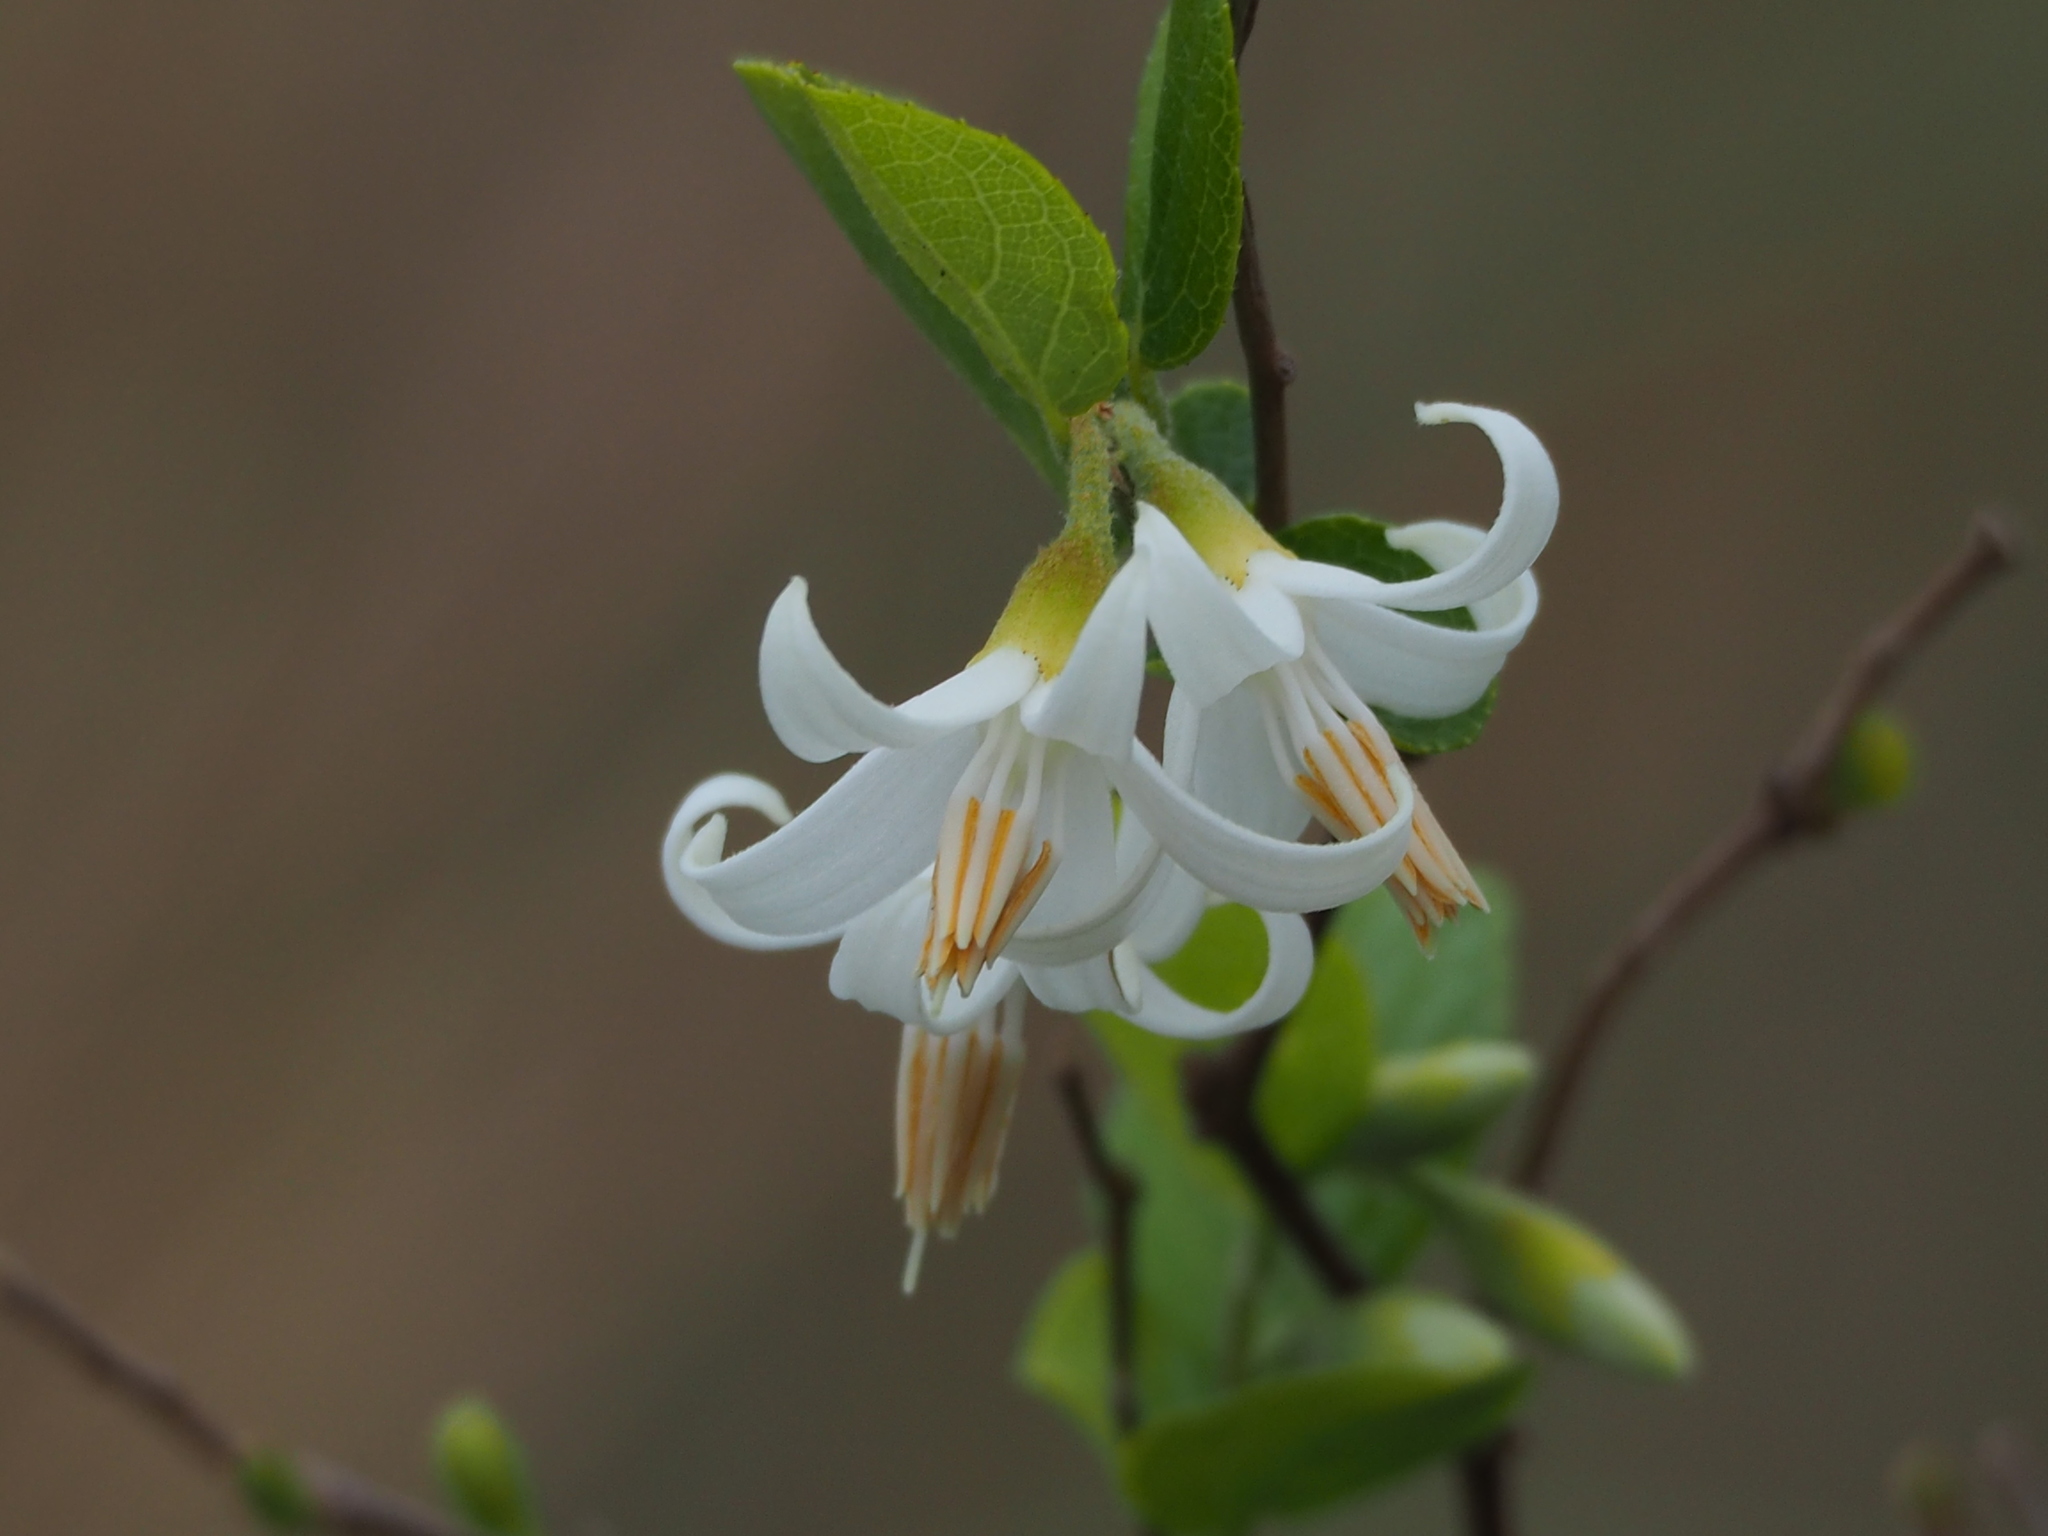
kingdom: Plantae
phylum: Tracheophyta
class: Magnoliopsida
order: Ericales
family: Styracaceae
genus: Styrax
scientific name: Styrax faberi
